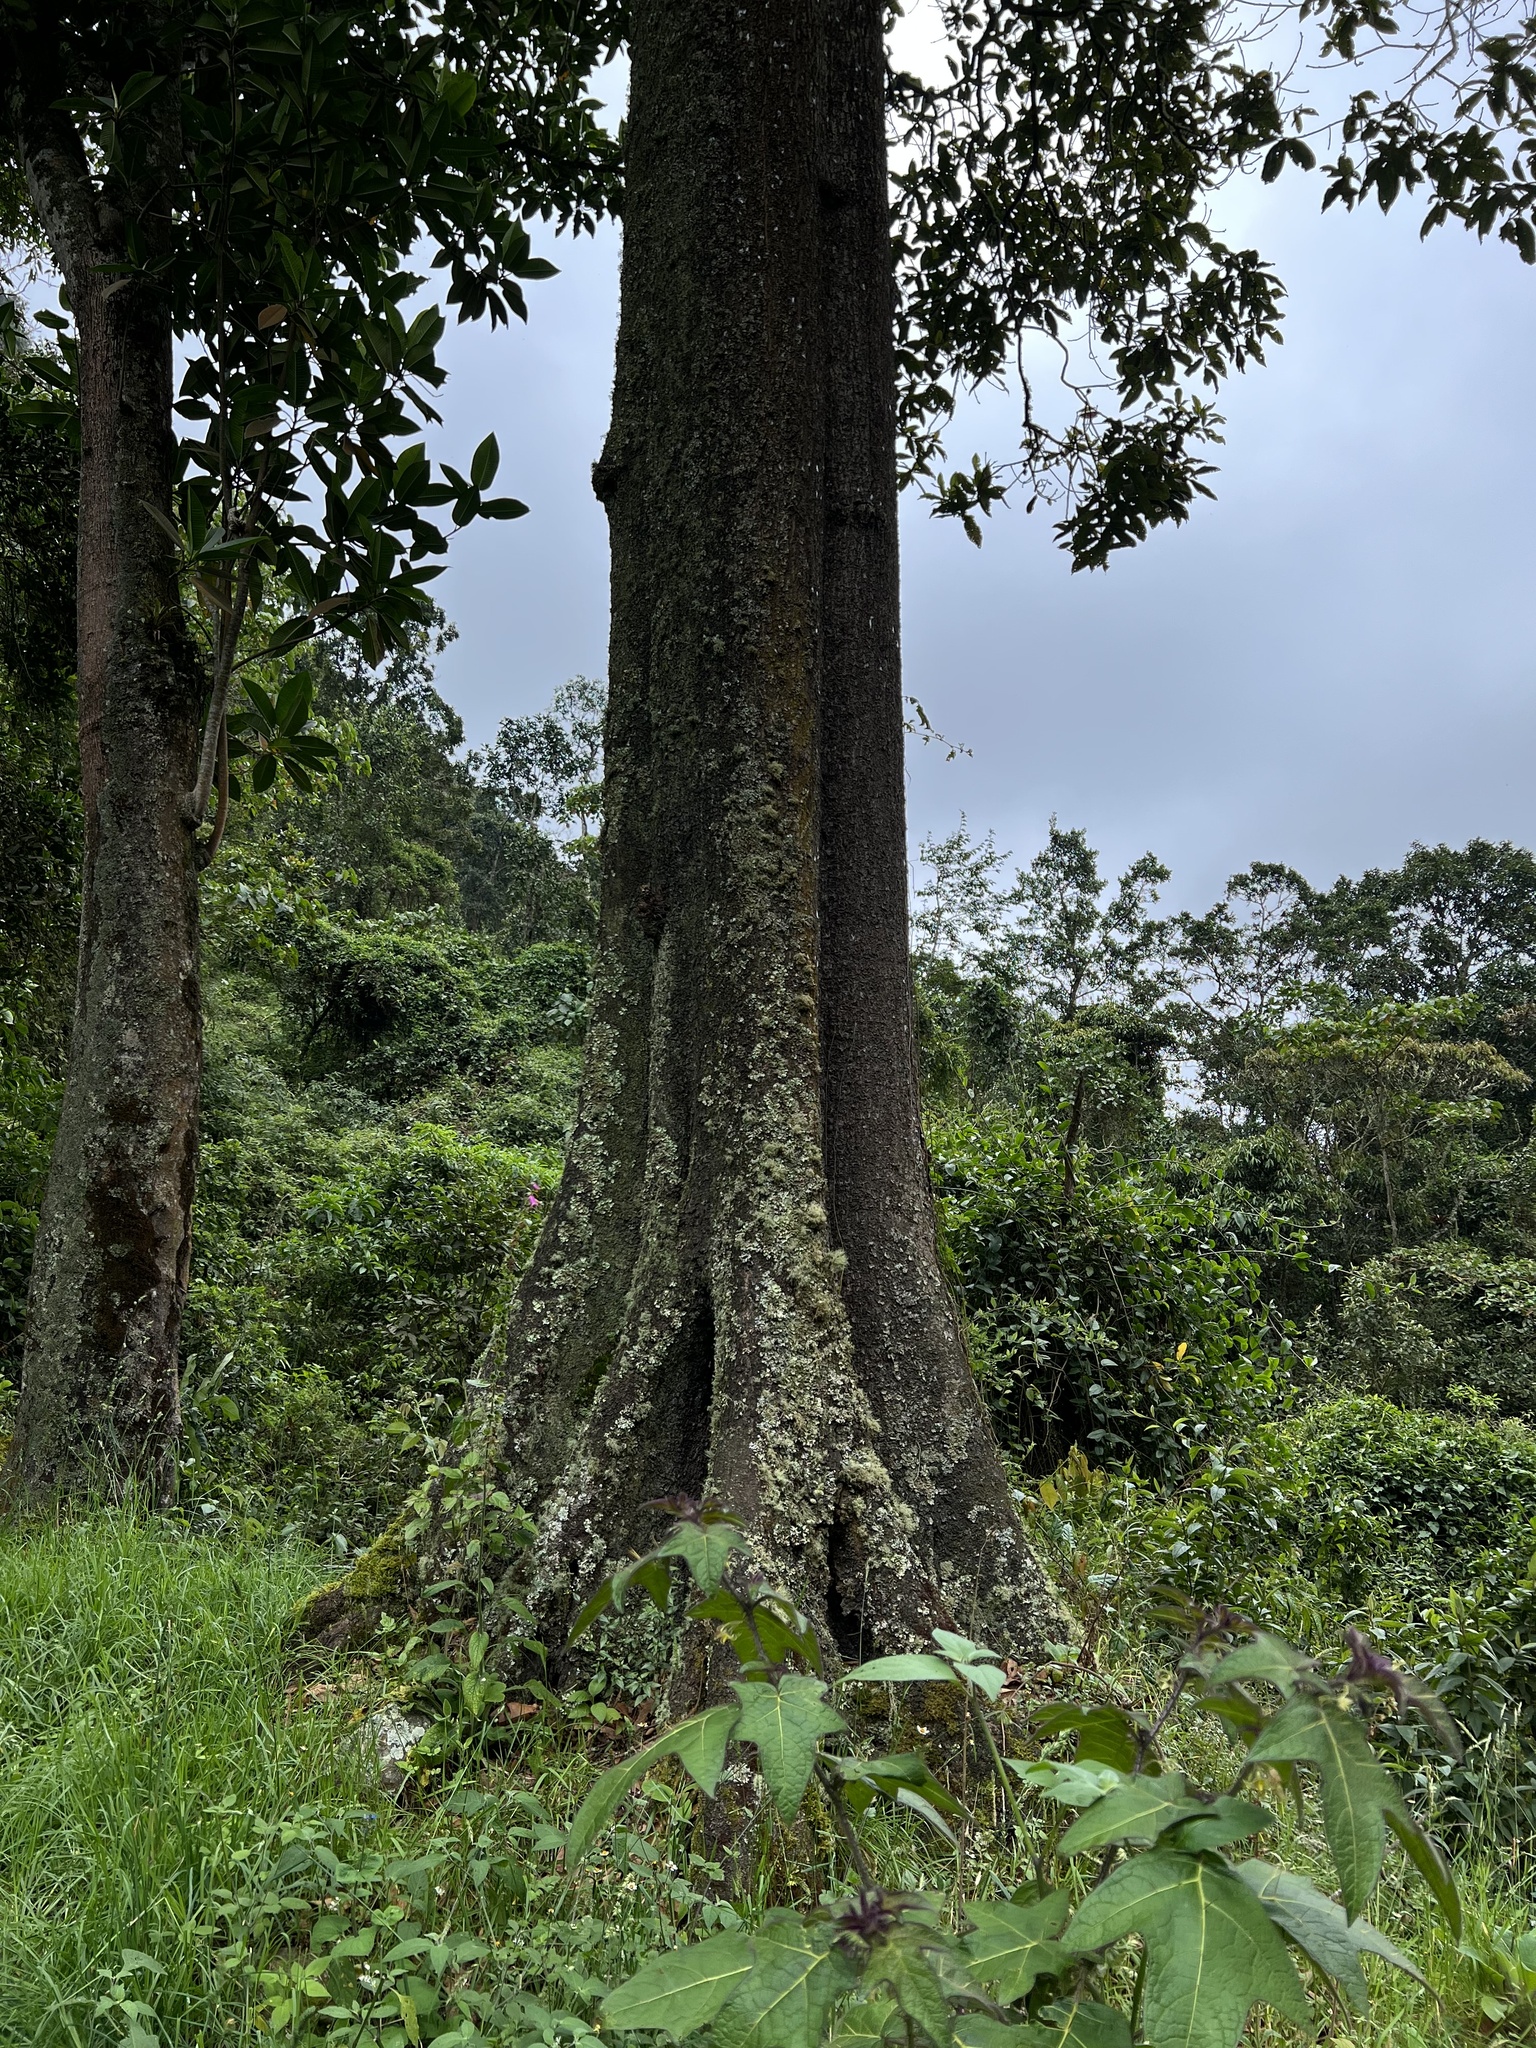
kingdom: Plantae
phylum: Tracheophyta
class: Magnoliopsida
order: Fagales
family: Fagaceae
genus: Quercus
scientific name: Quercus humboldtii
